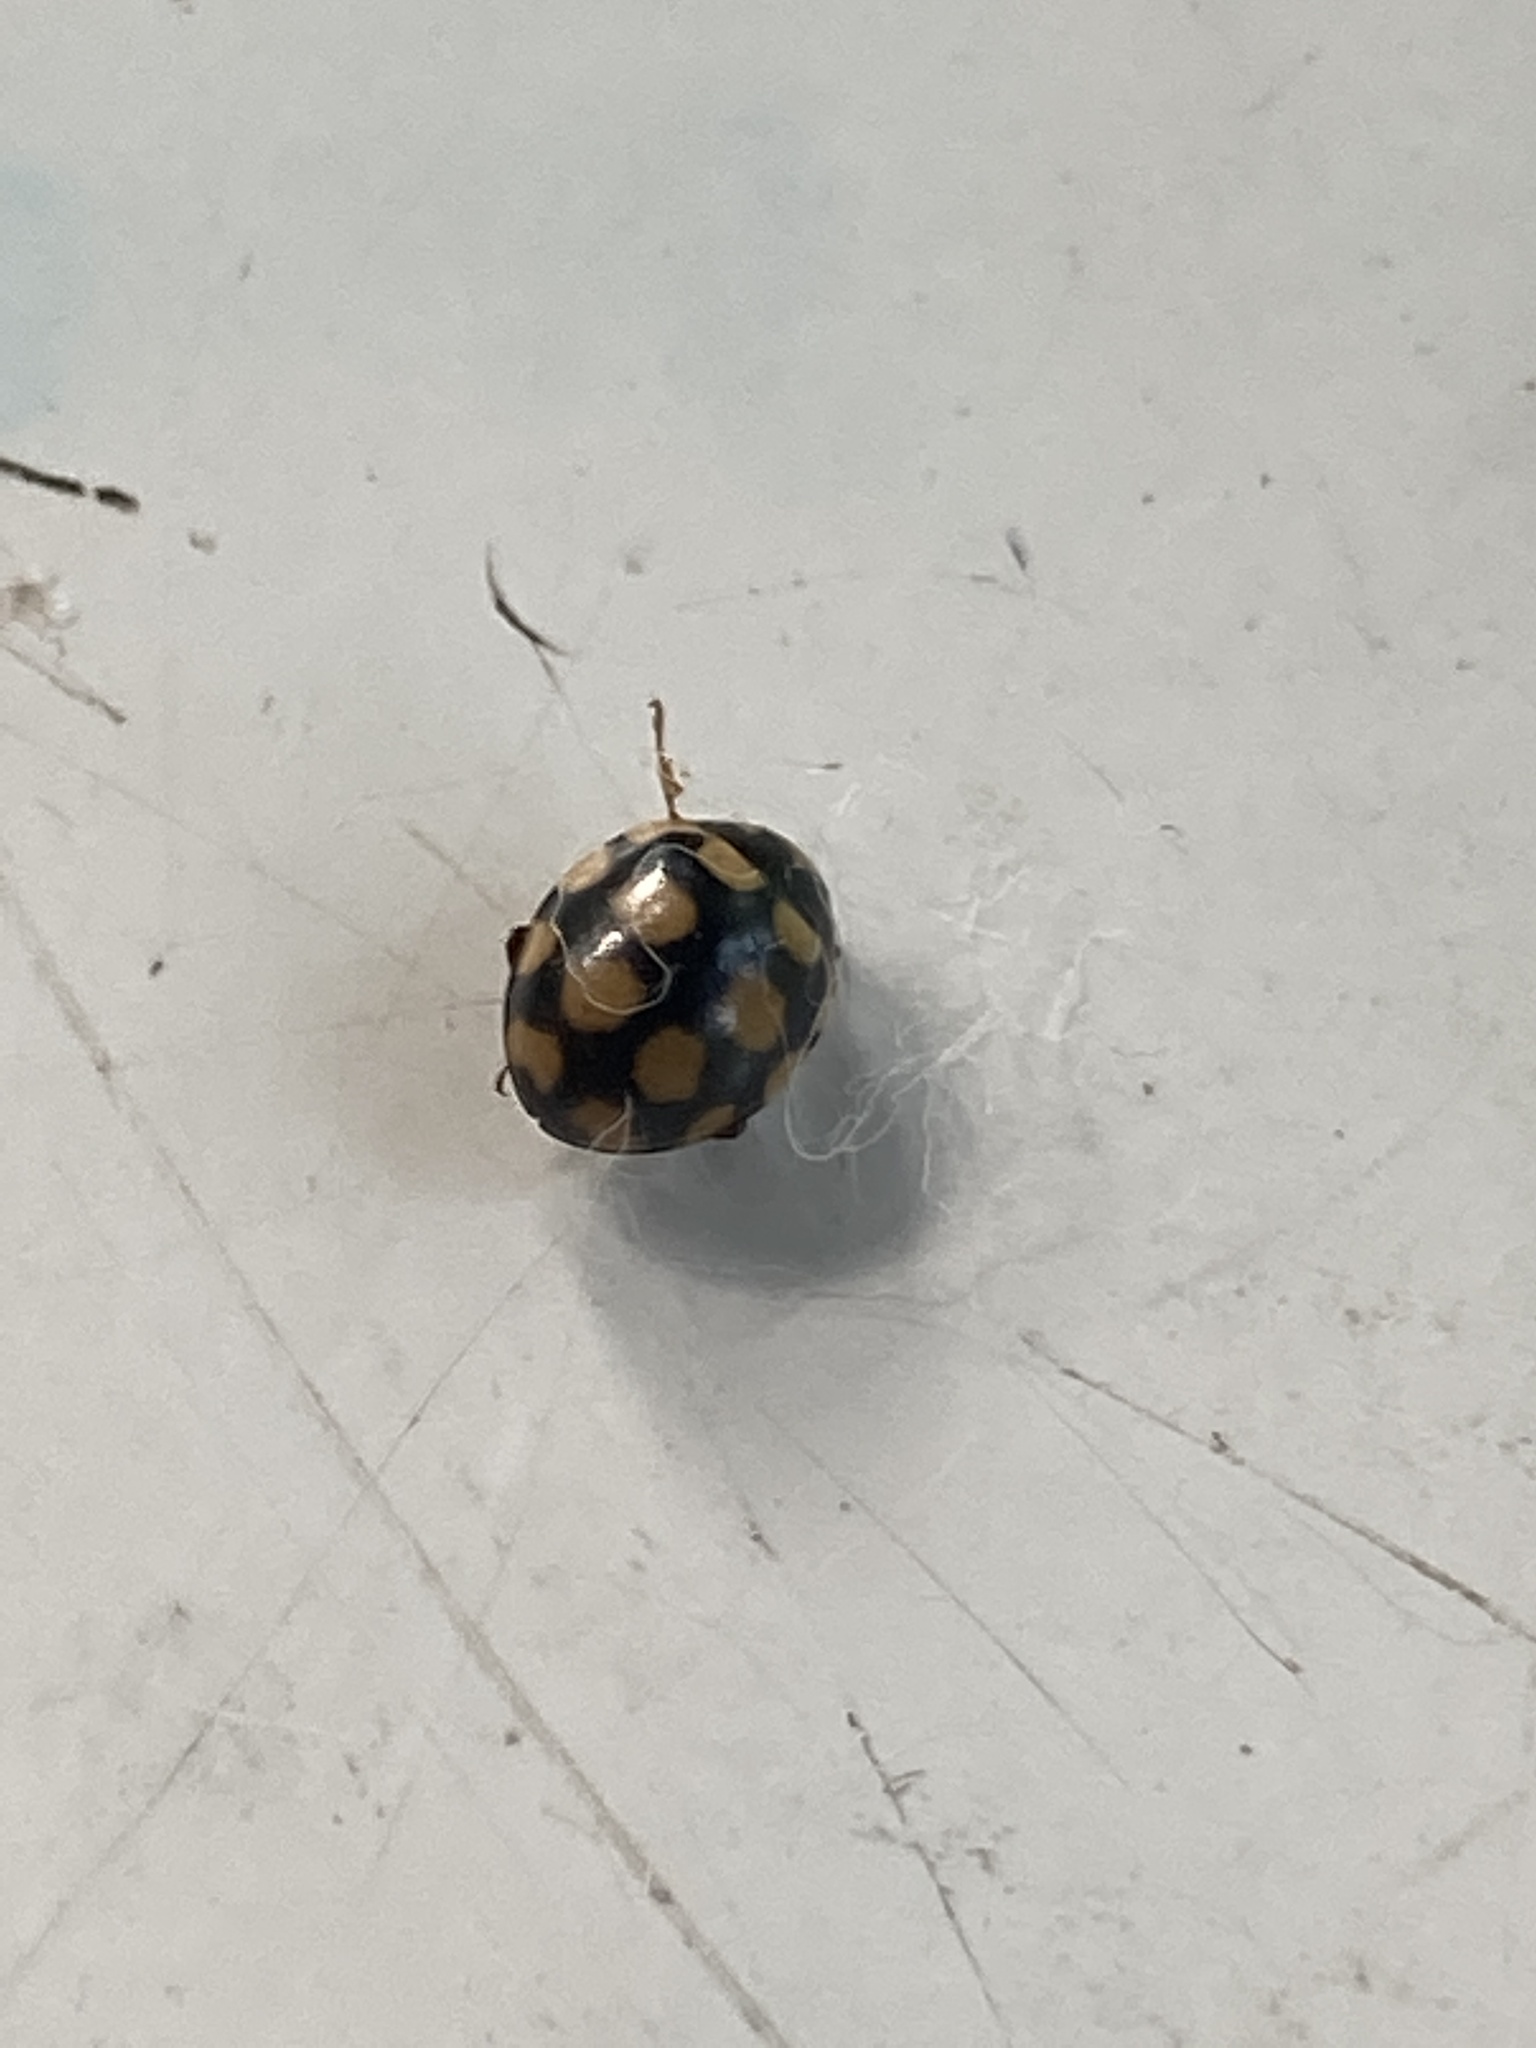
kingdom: Animalia
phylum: Arthropoda
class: Insecta
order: Coleoptera
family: Coccinellidae
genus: Coccinula
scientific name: Coccinula quatuordecimpustulata
